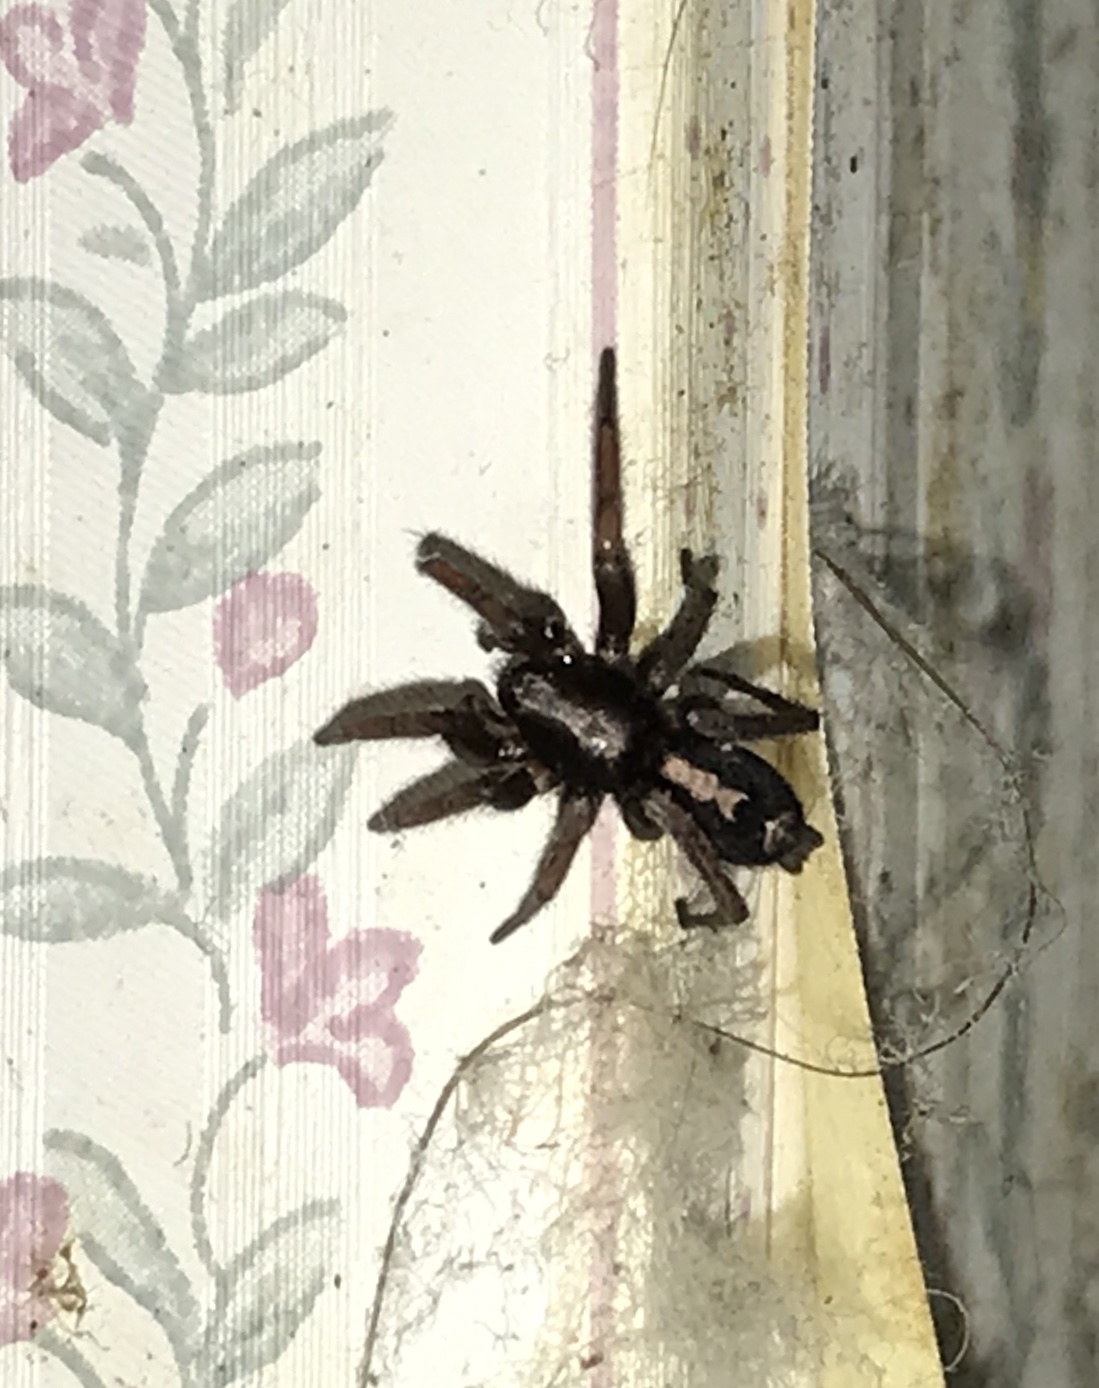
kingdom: Animalia
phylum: Arthropoda
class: Arachnida
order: Araneae
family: Gnaphosidae
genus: Herpyllus
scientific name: Herpyllus ecclesiasticus
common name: Eastern parson spider
